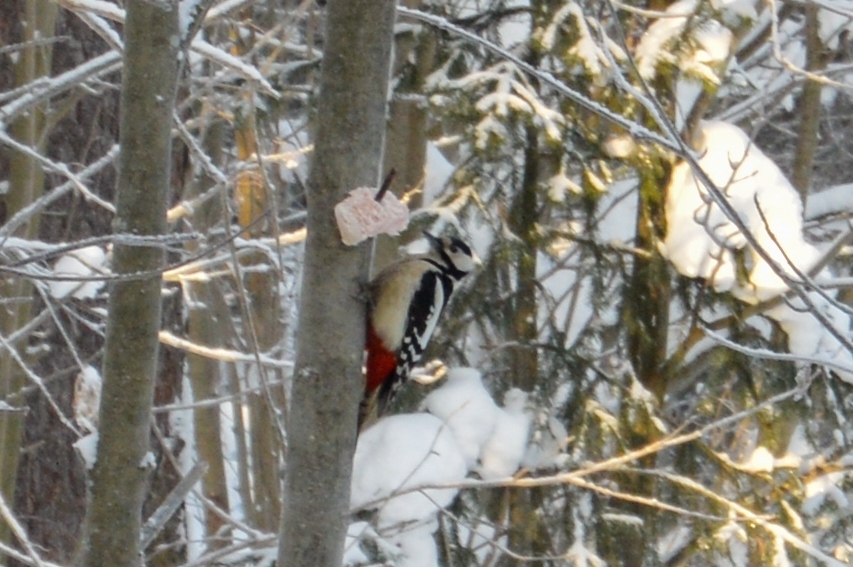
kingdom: Animalia
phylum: Chordata
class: Aves
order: Piciformes
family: Picidae
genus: Dendrocopos
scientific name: Dendrocopos major
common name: Great spotted woodpecker
